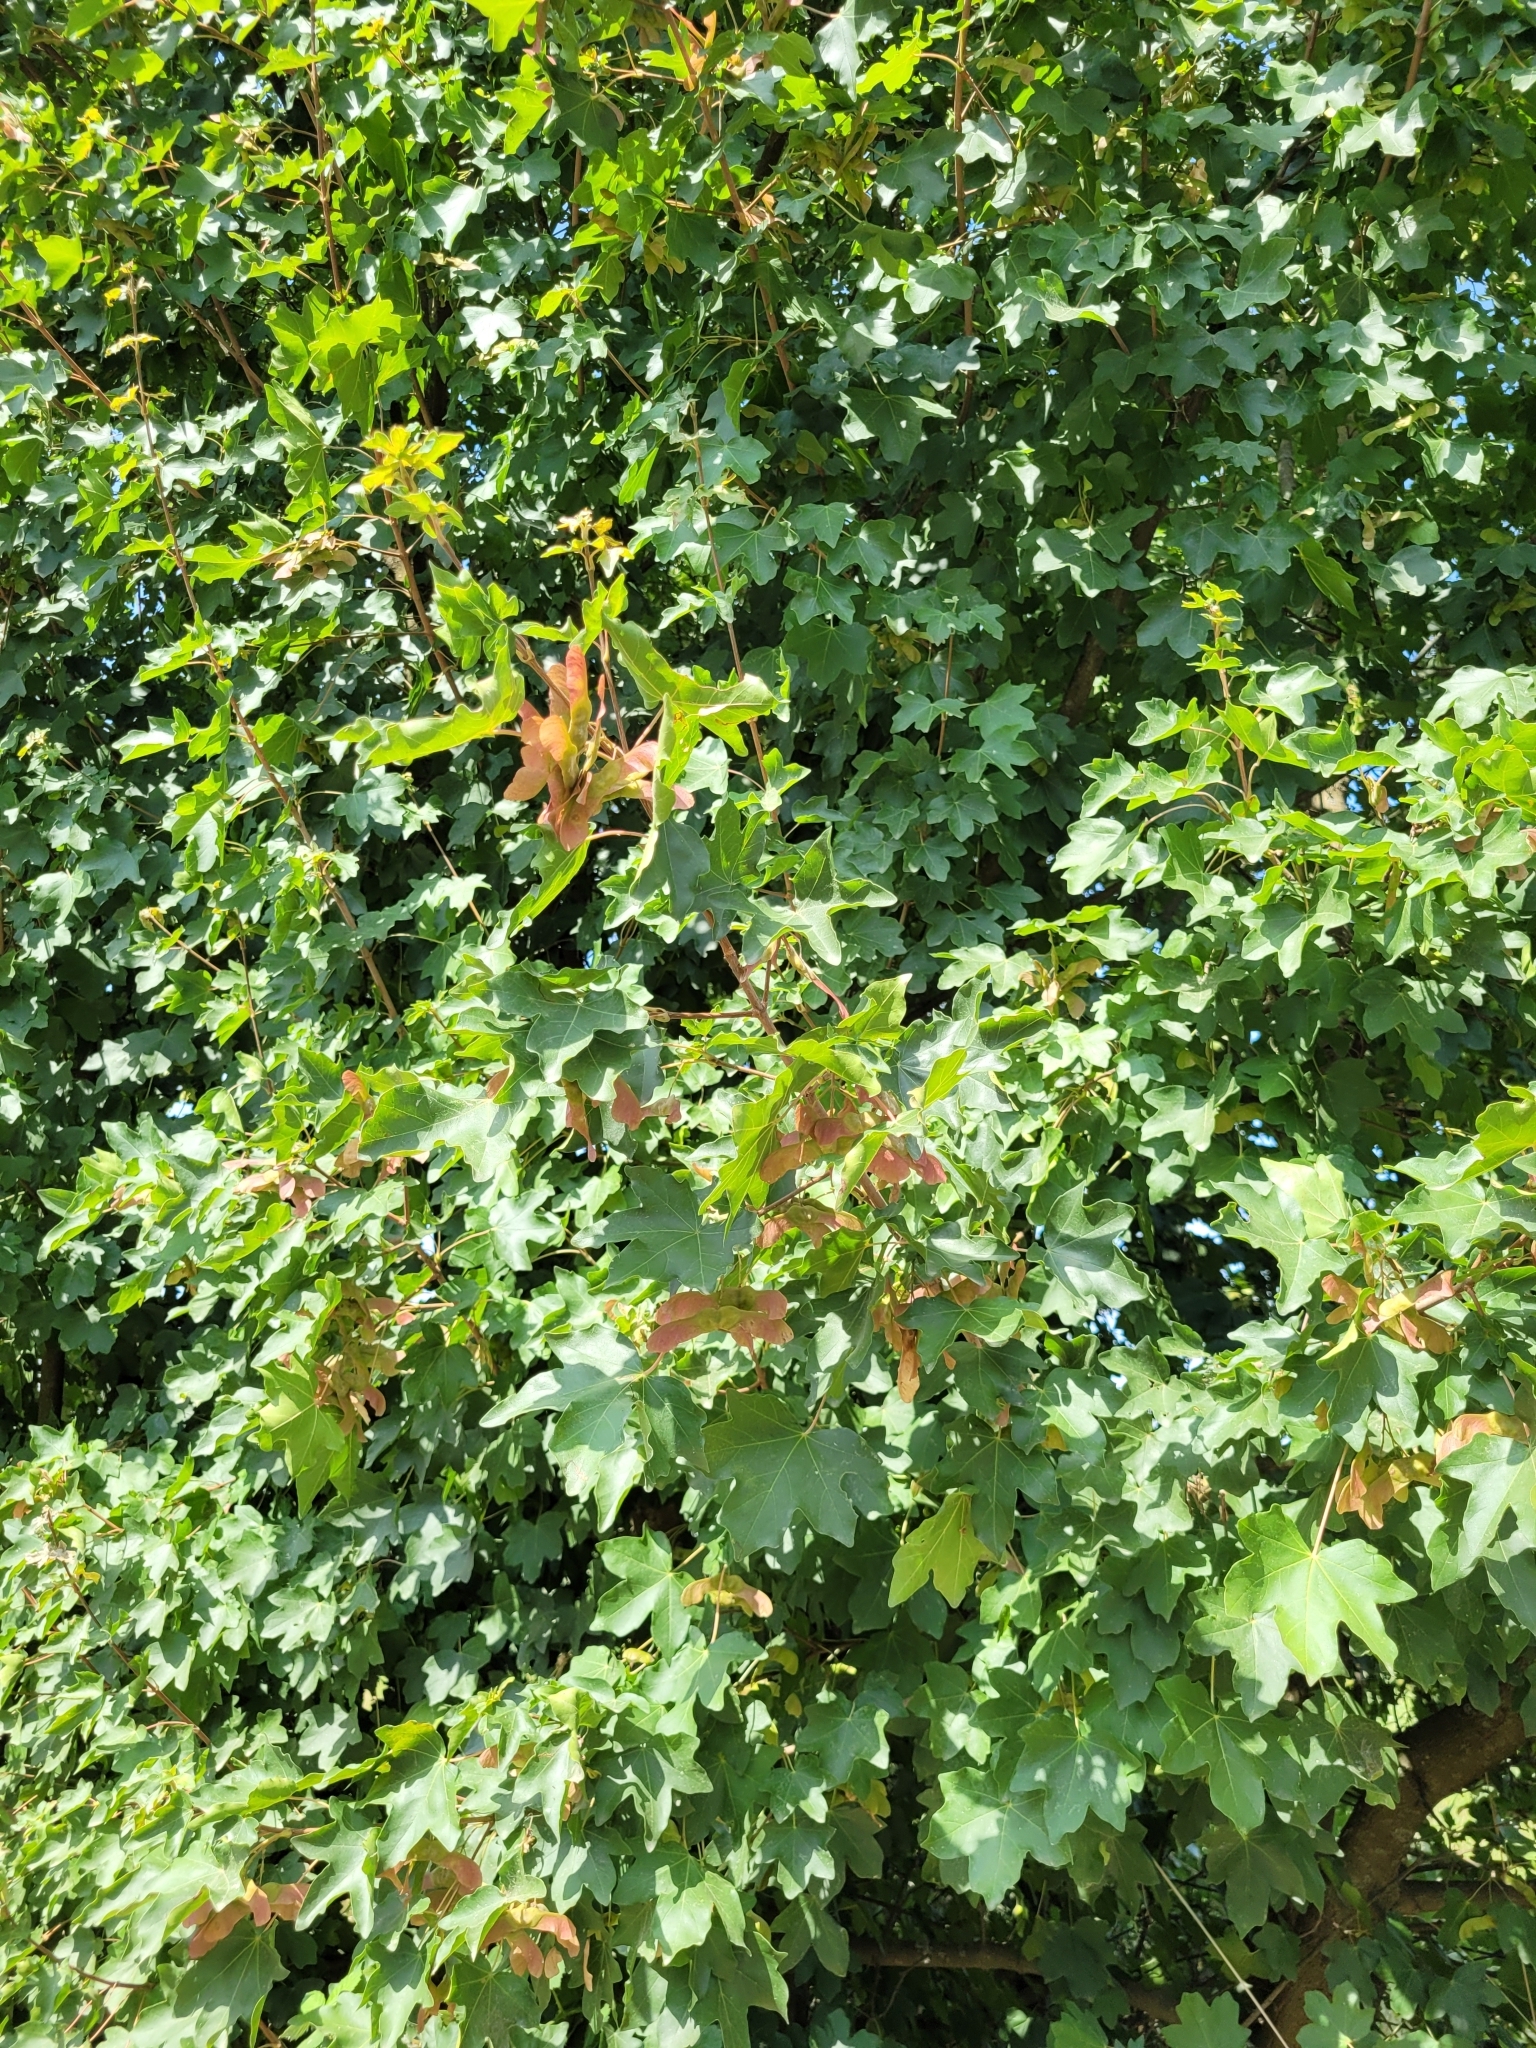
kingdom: Plantae
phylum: Tracheophyta
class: Magnoliopsida
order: Sapindales
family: Sapindaceae
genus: Acer
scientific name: Acer campestre
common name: Field maple
